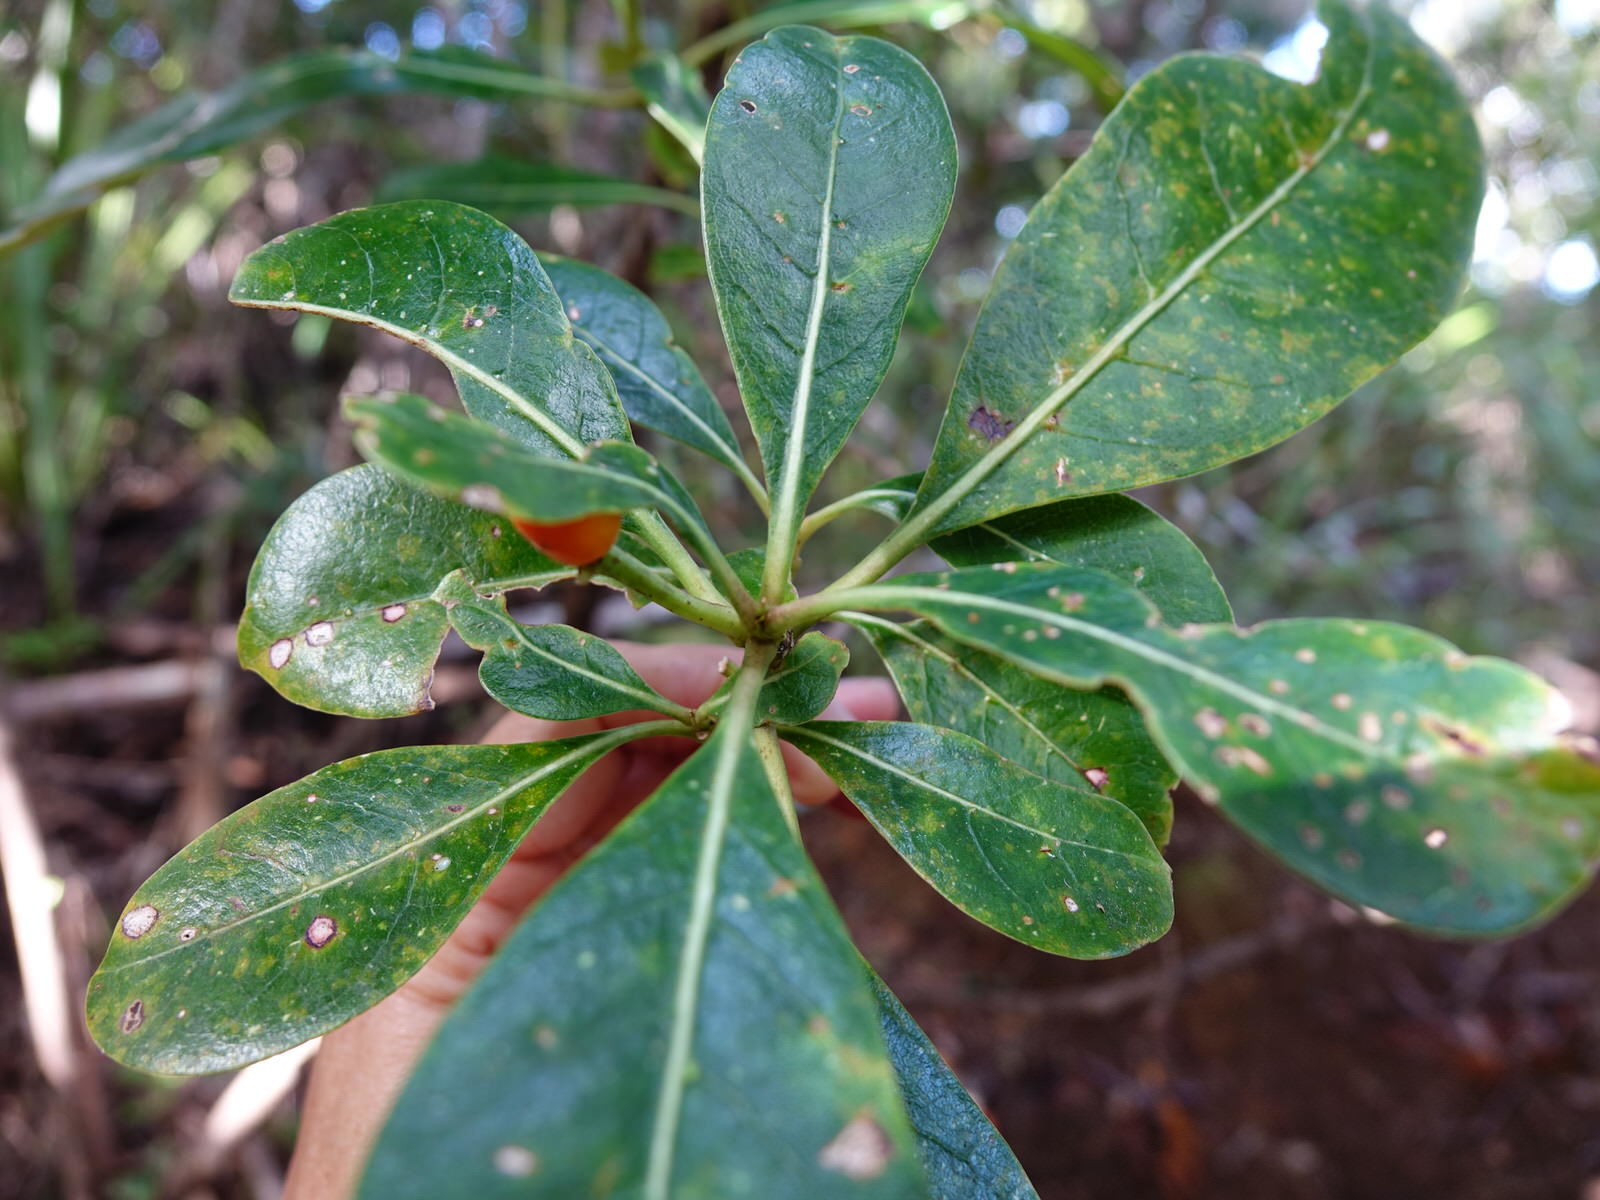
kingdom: Plantae
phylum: Tracheophyta
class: Magnoliopsida
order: Gentianales
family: Rubiaceae
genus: Coprosma
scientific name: Coprosma lucida
